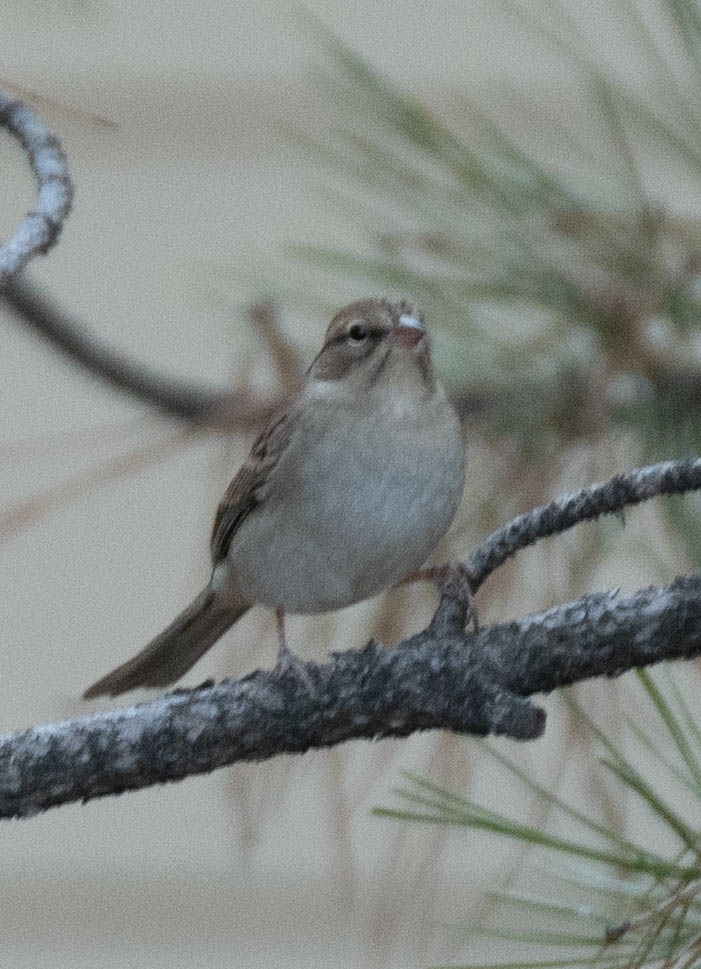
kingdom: Animalia
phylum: Chordata
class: Aves
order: Passeriformes
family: Passerellidae
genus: Spizella
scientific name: Spizella passerina
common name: Chipping sparrow
